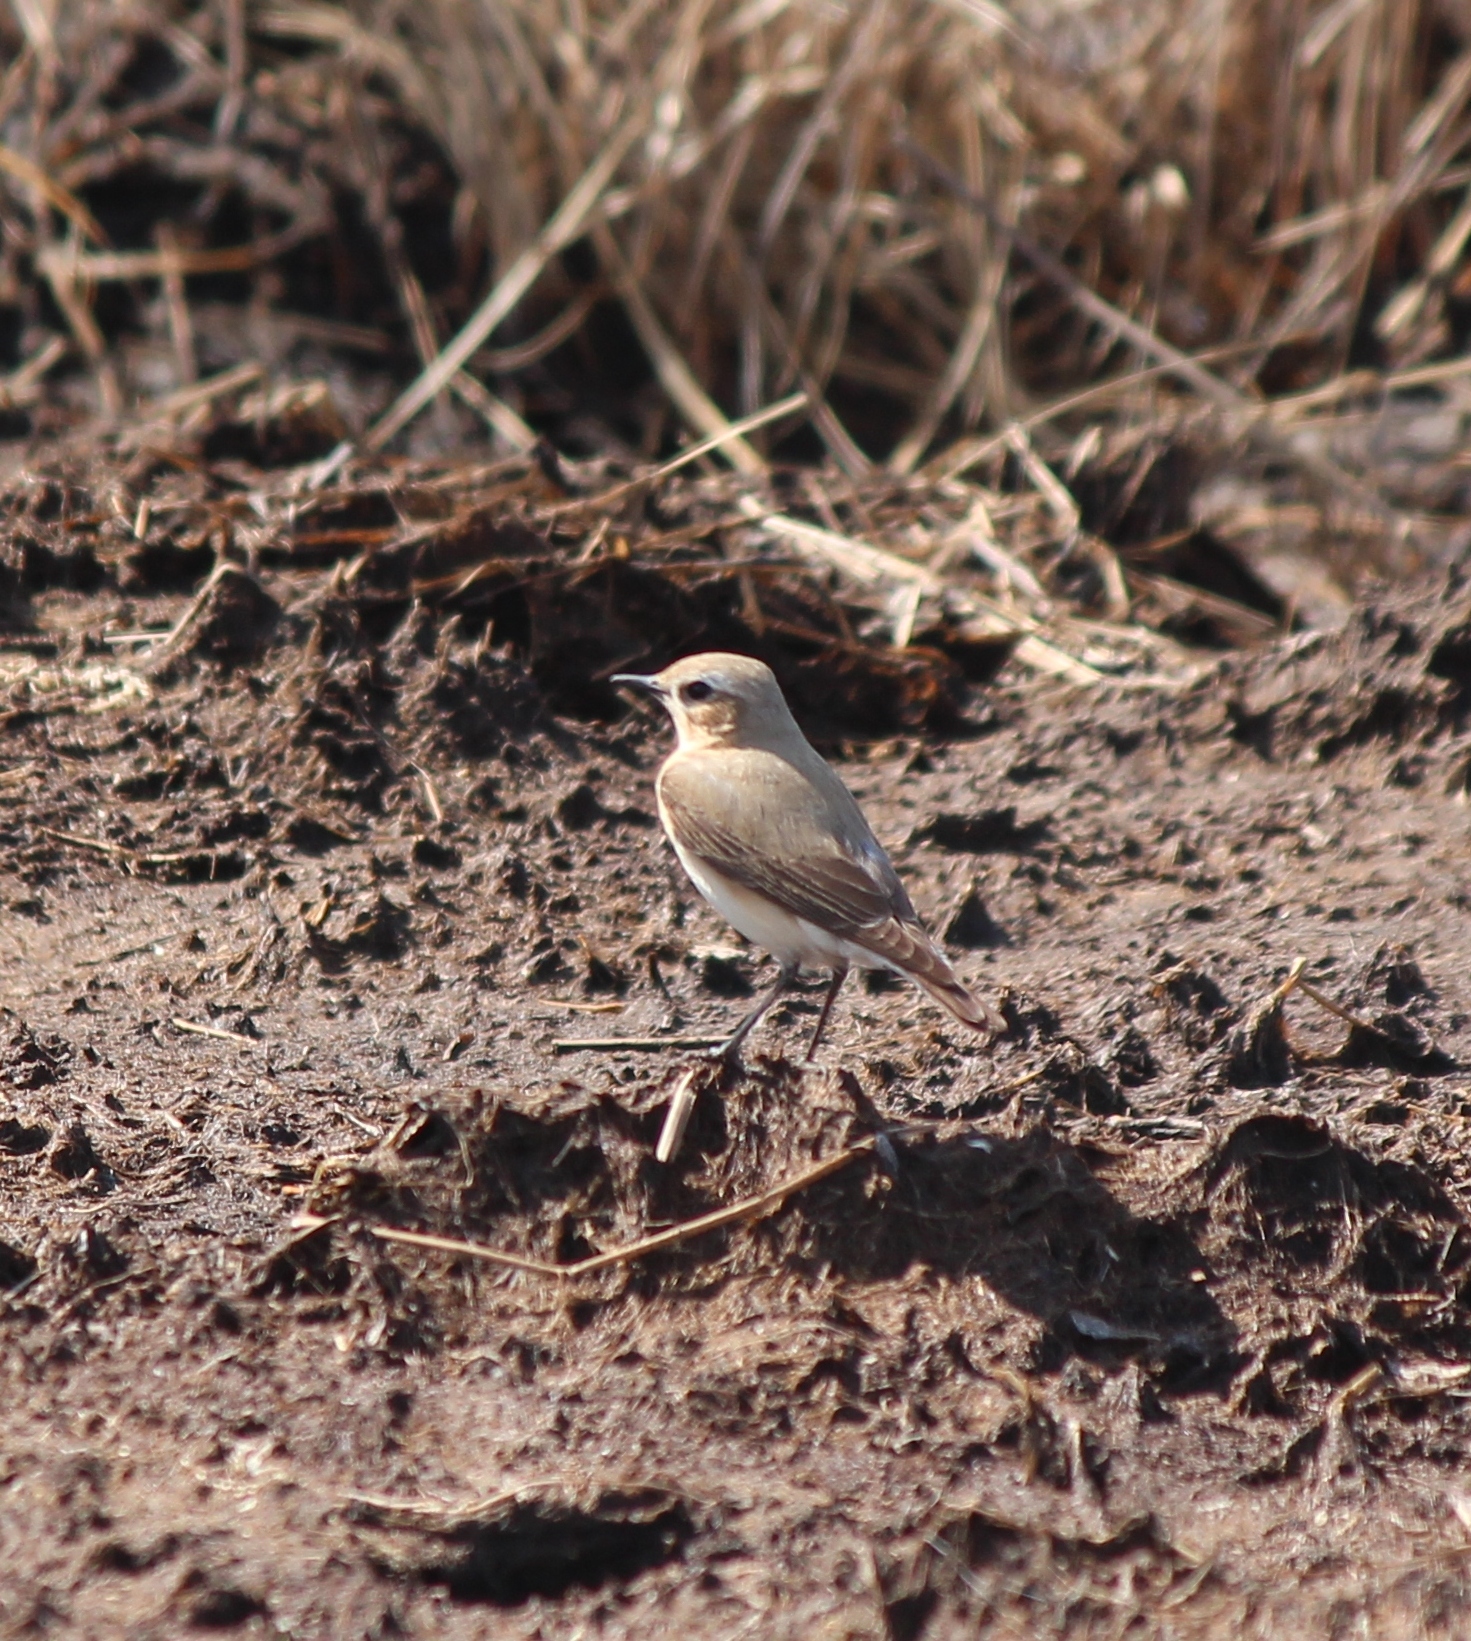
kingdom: Animalia
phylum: Chordata
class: Aves
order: Passeriformes
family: Muscicapidae
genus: Oenanthe
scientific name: Oenanthe oenanthe
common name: Northern wheatear
